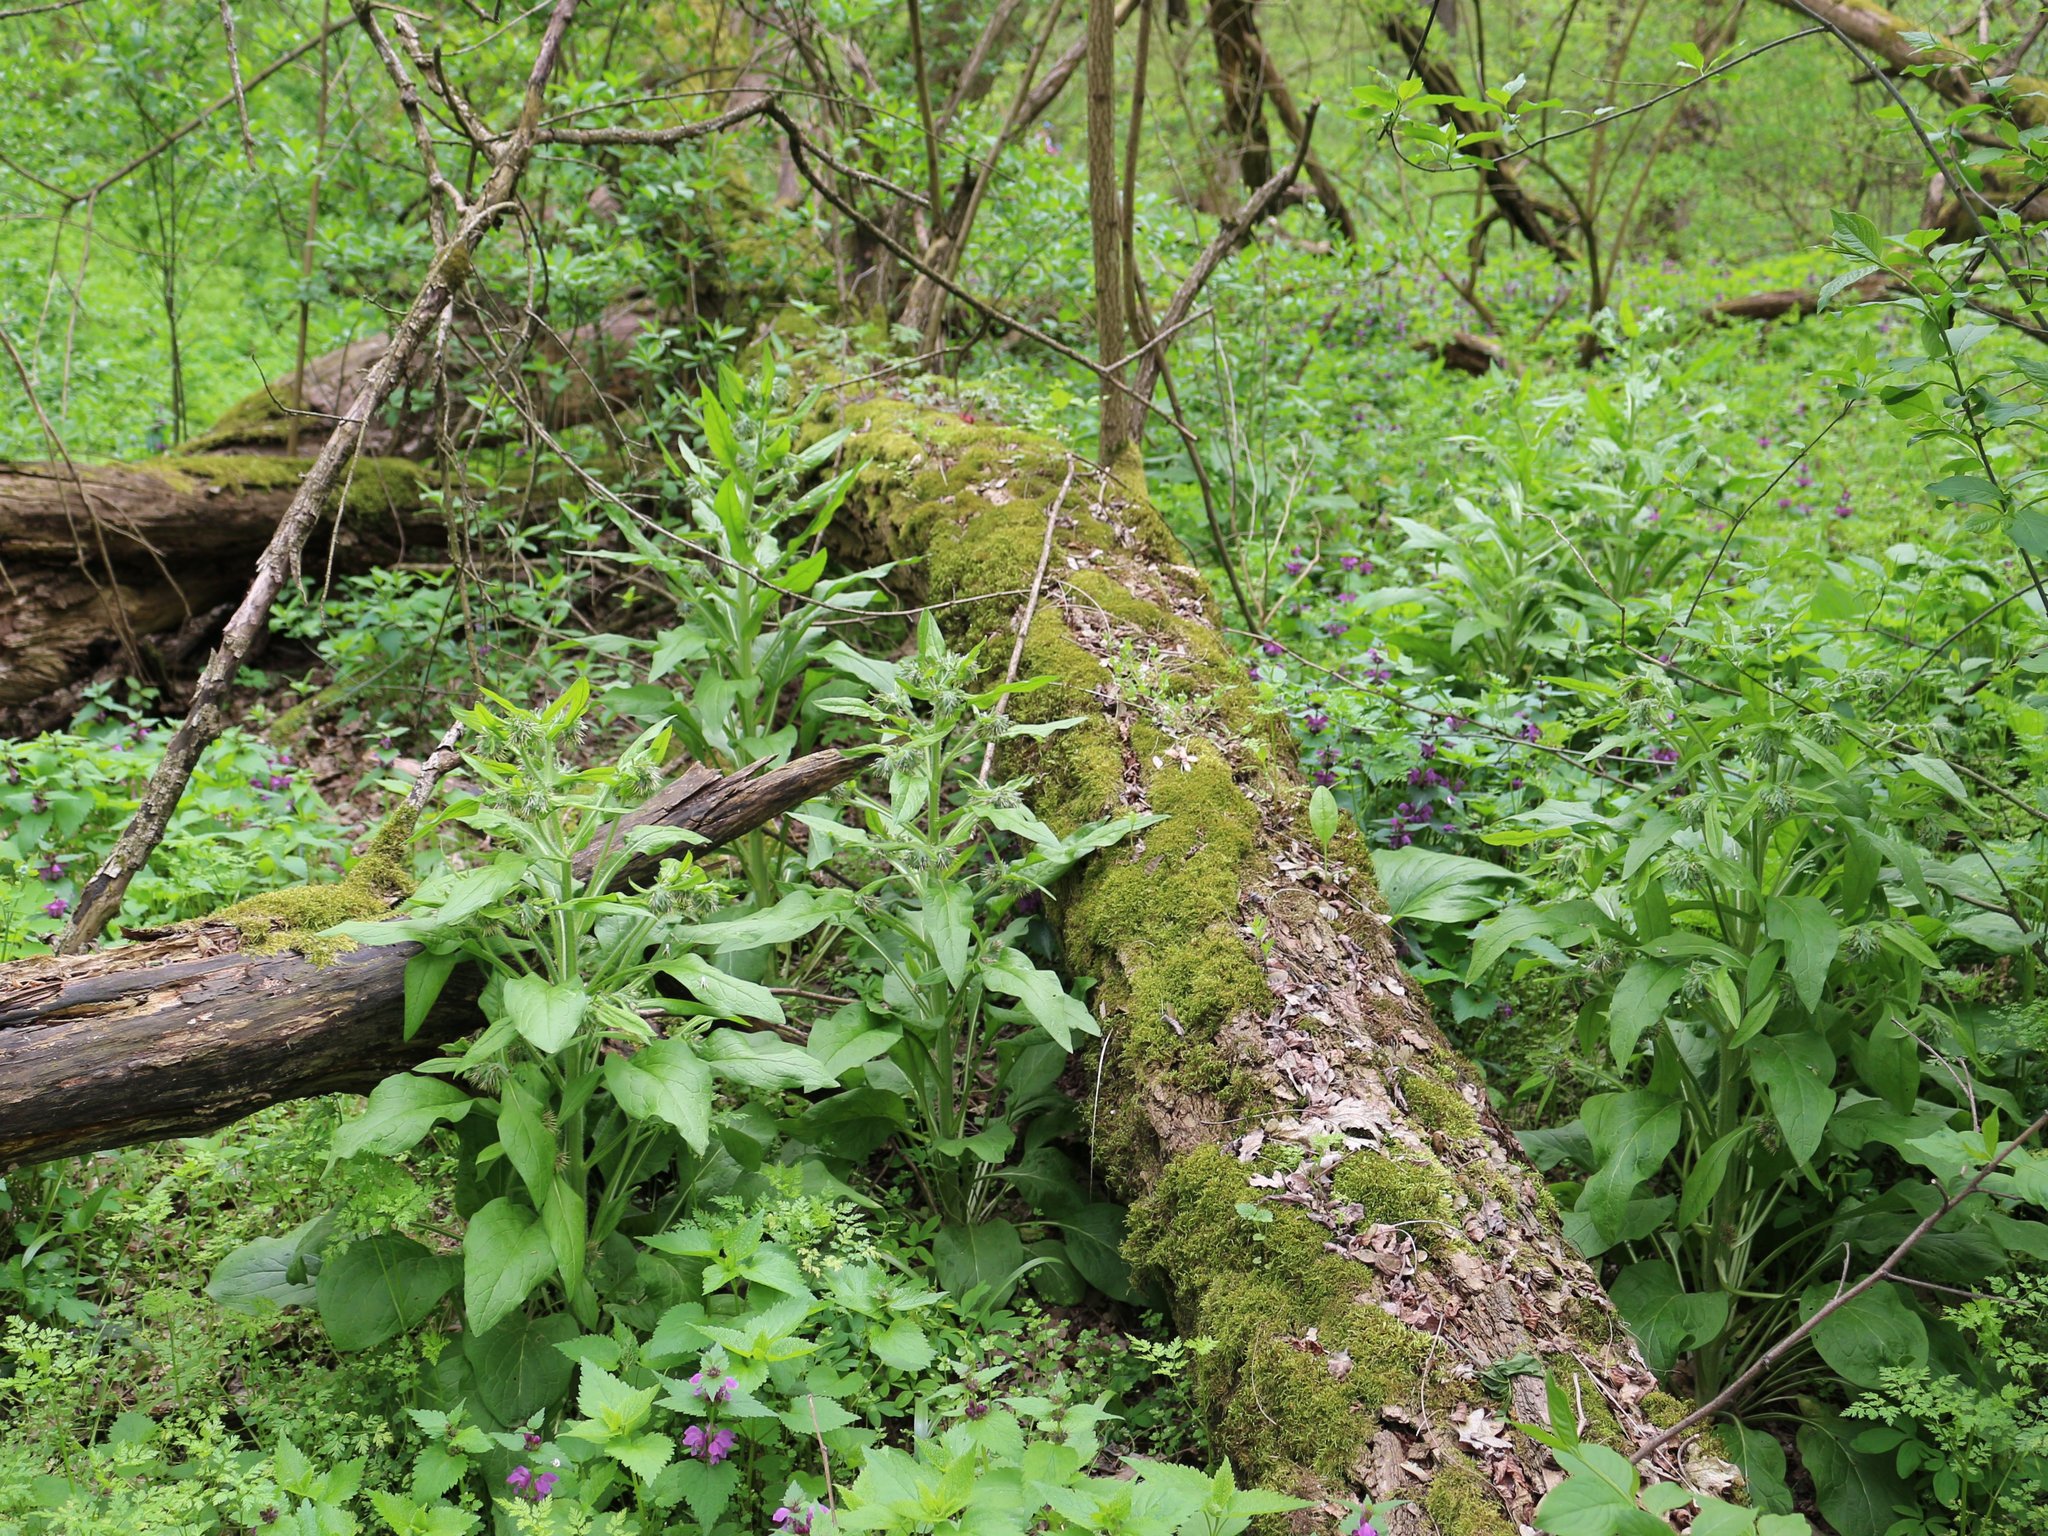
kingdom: Plantae
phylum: Tracheophyta
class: Magnoliopsida
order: Boraginales
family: Boraginaceae
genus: Solenanthus
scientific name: Solenanthus dubius
